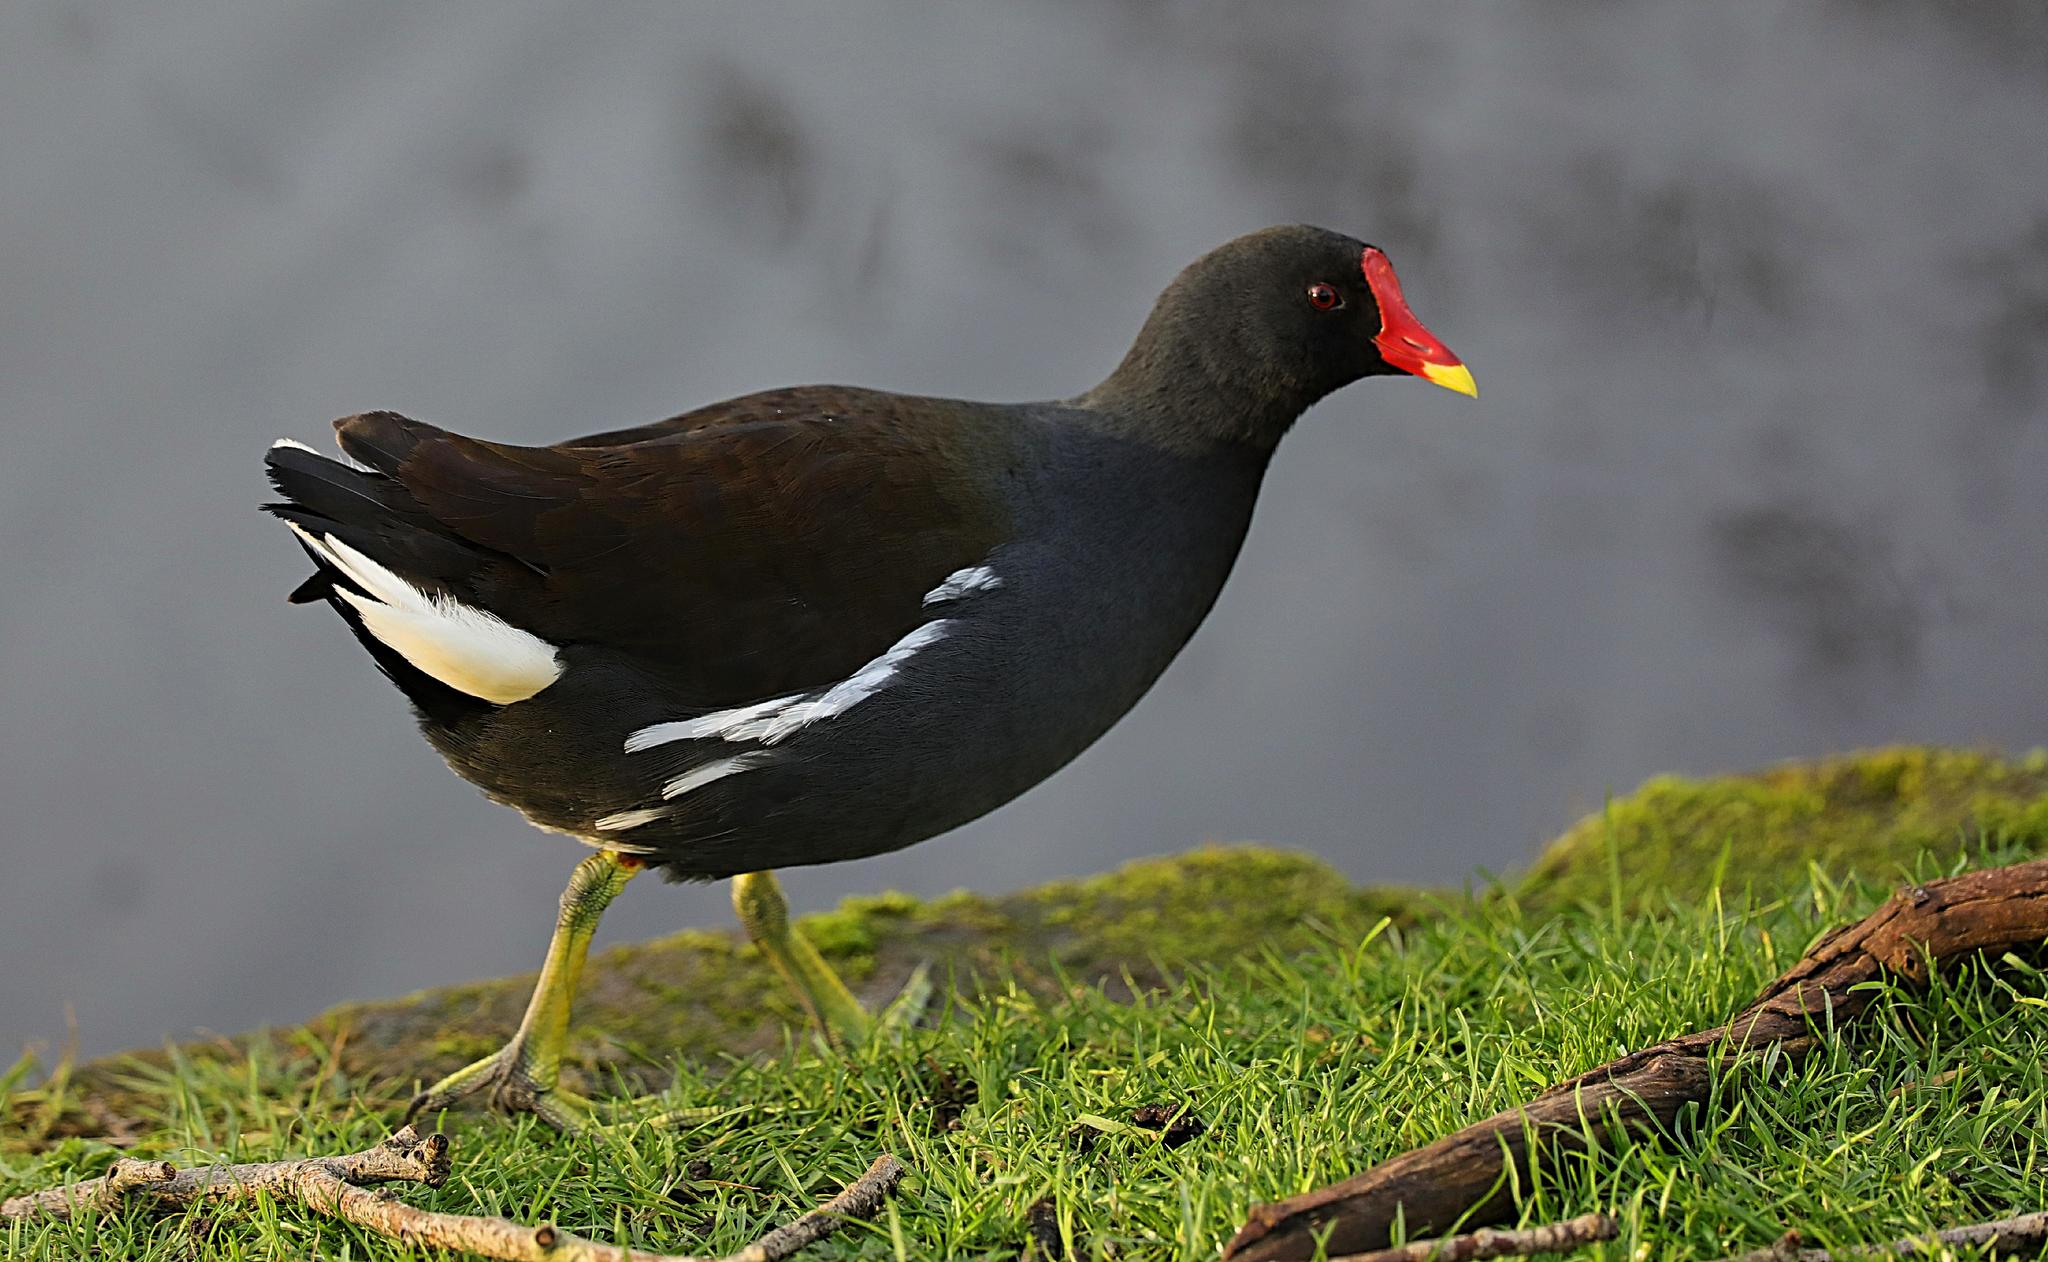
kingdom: Animalia
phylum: Chordata
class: Aves
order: Gruiformes
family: Rallidae
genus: Gallinula
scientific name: Gallinula chloropus
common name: Common moorhen
